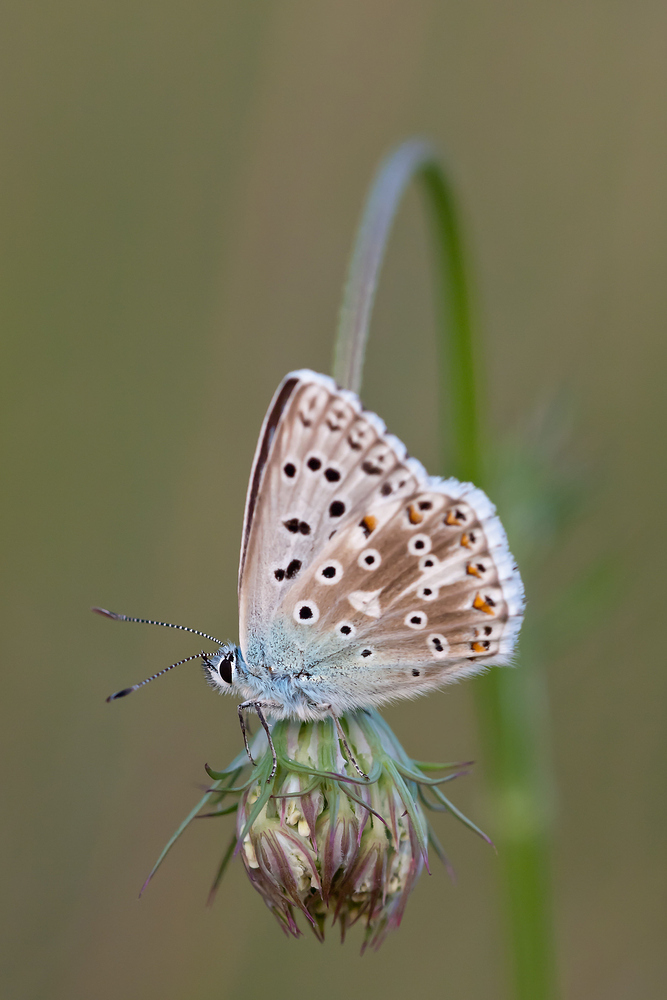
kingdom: Animalia
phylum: Arthropoda
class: Insecta
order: Lepidoptera
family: Lycaenidae
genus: Lysandra
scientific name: Lysandra coridon
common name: Chalkhill blue
